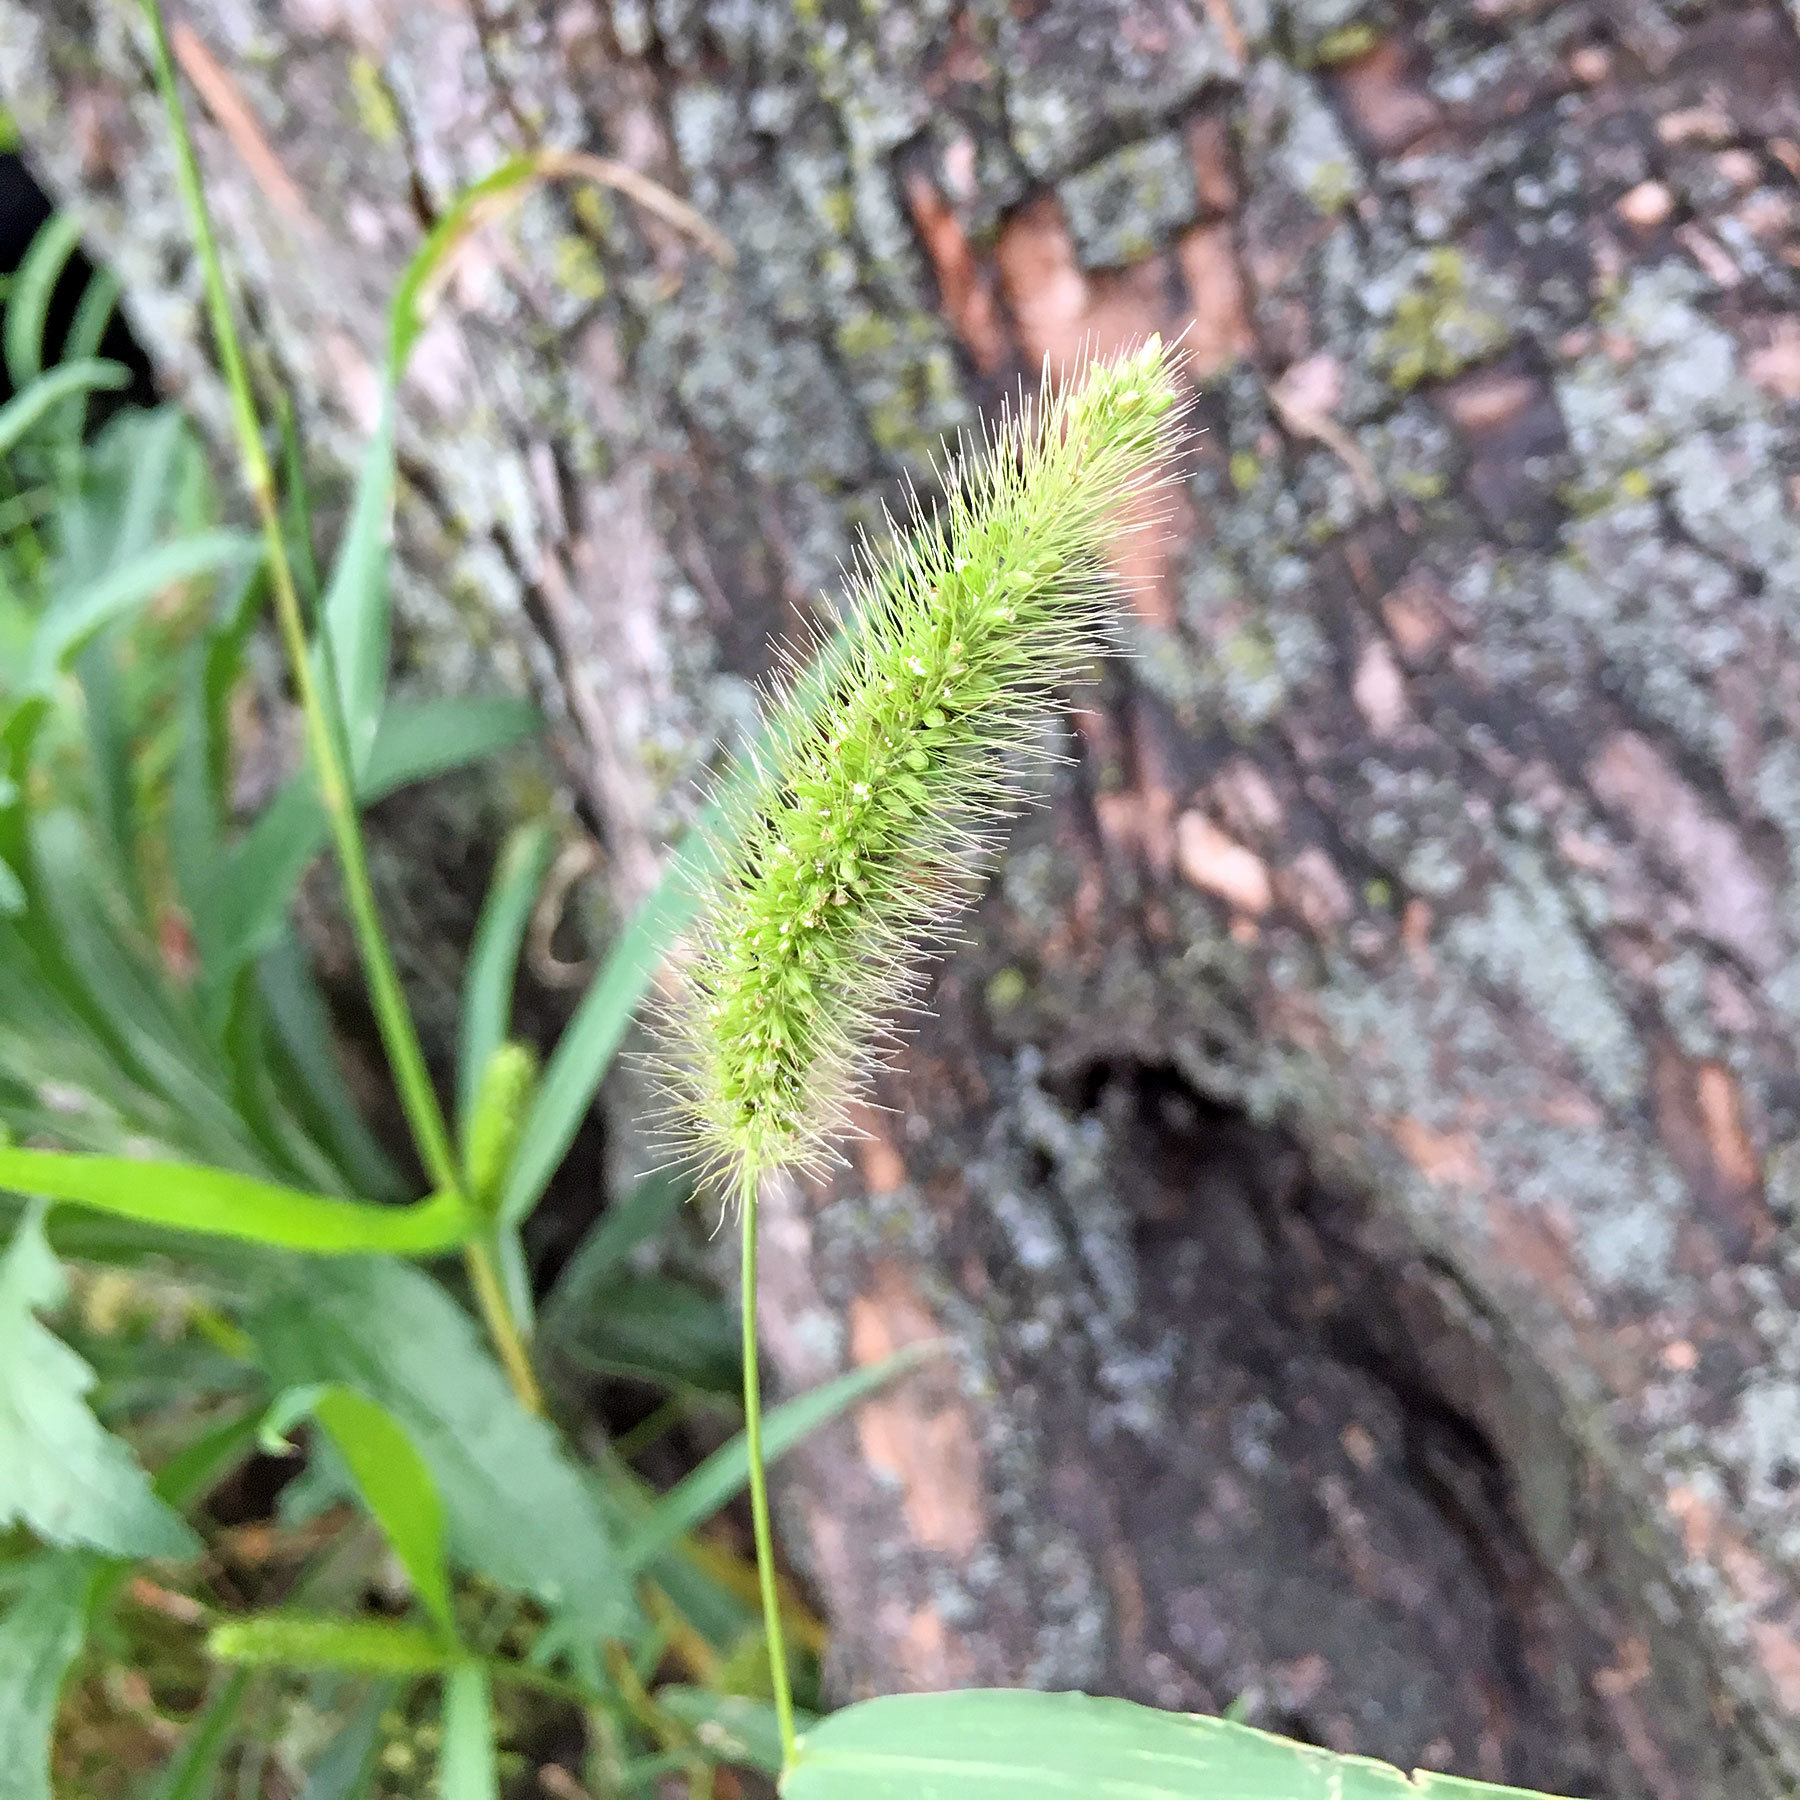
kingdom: Plantae
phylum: Tracheophyta
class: Liliopsida
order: Poales
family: Poaceae
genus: Setaria
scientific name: Setaria viridis
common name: Green bristlegrass
